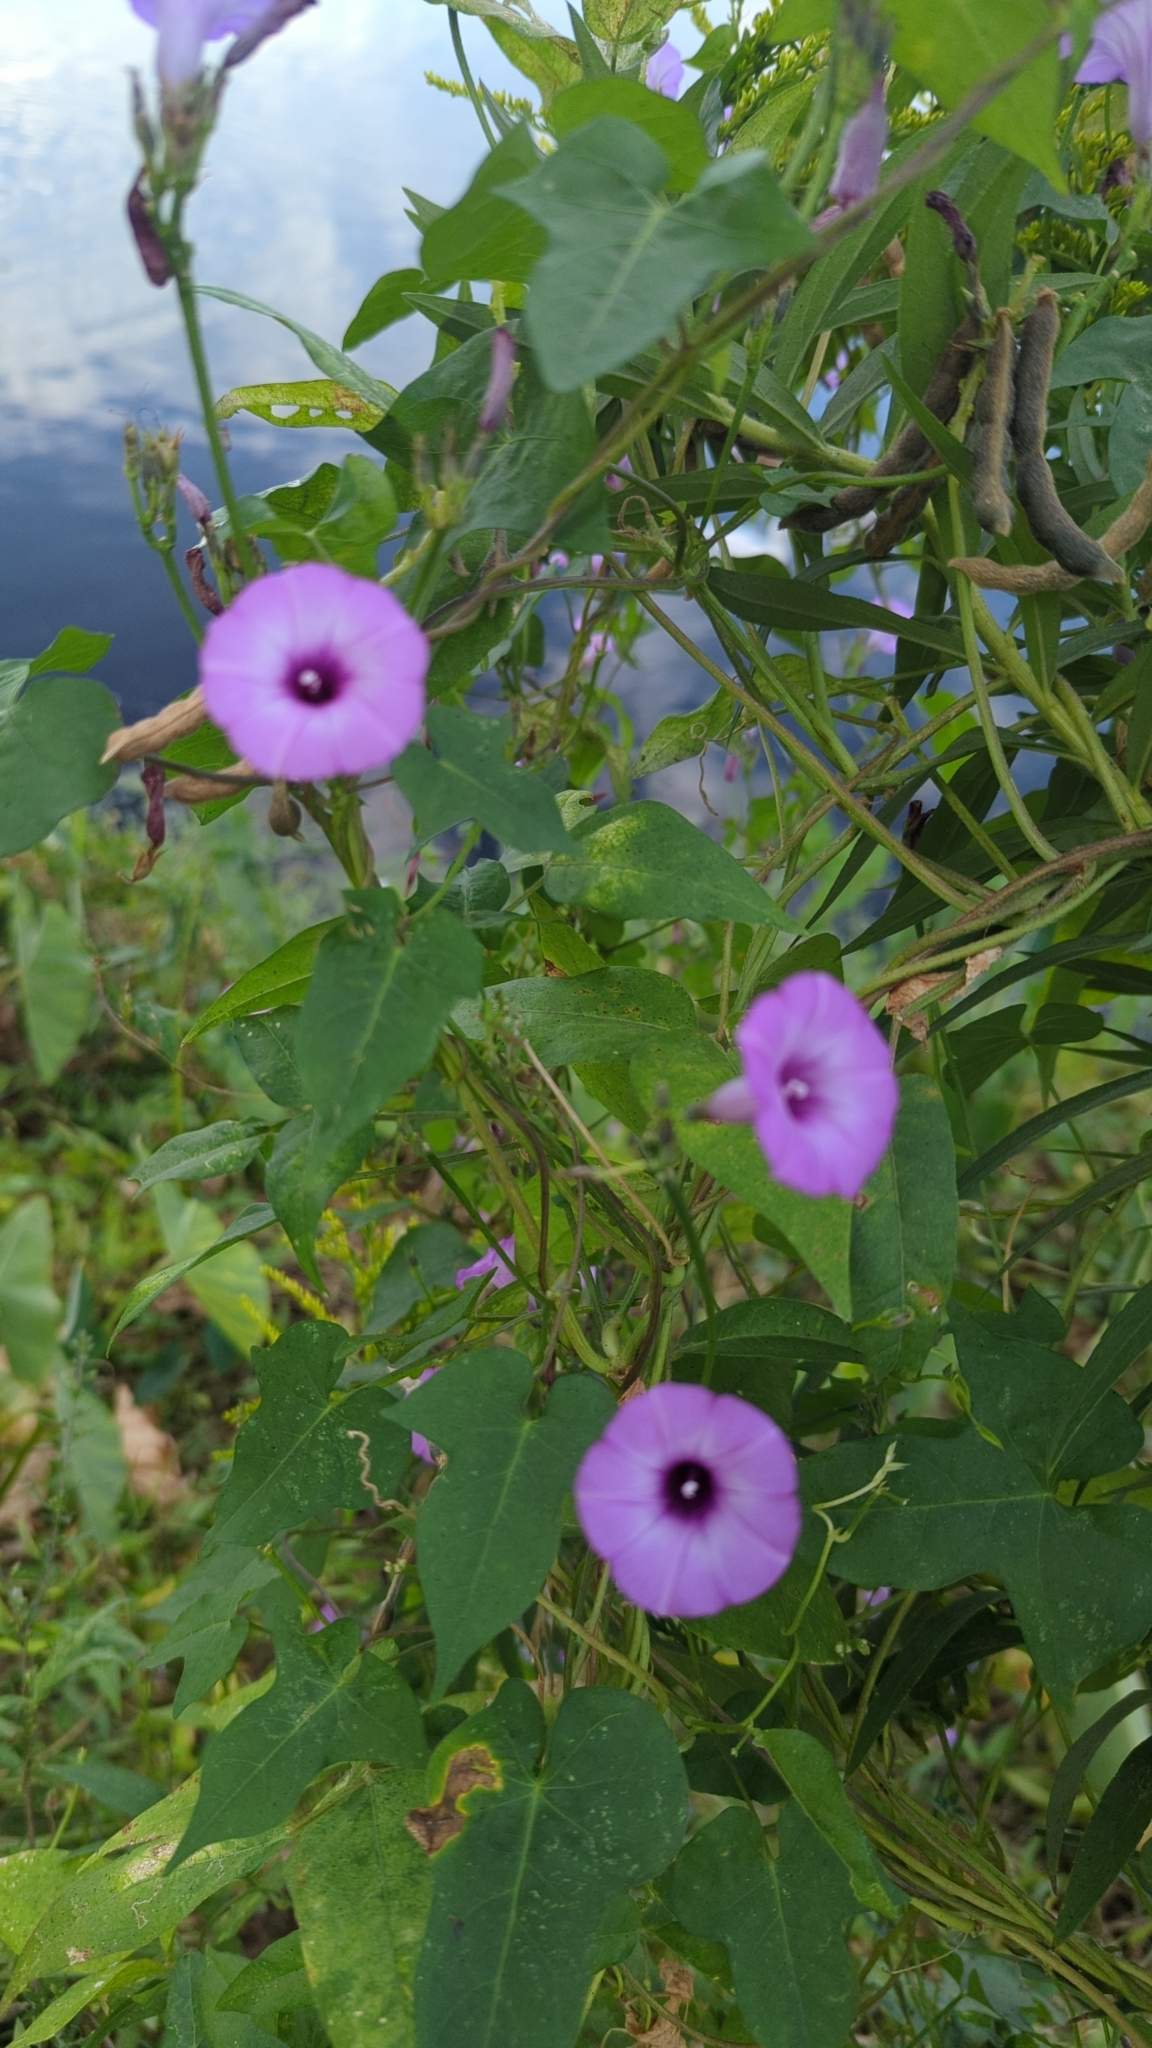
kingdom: Plantae
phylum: Tracheophyta
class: Magnoliopsida
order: Solanales
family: Convolvulaceae
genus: Ipomoea
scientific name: Ipomoea cordatotriloba
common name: Cotton morning glory
